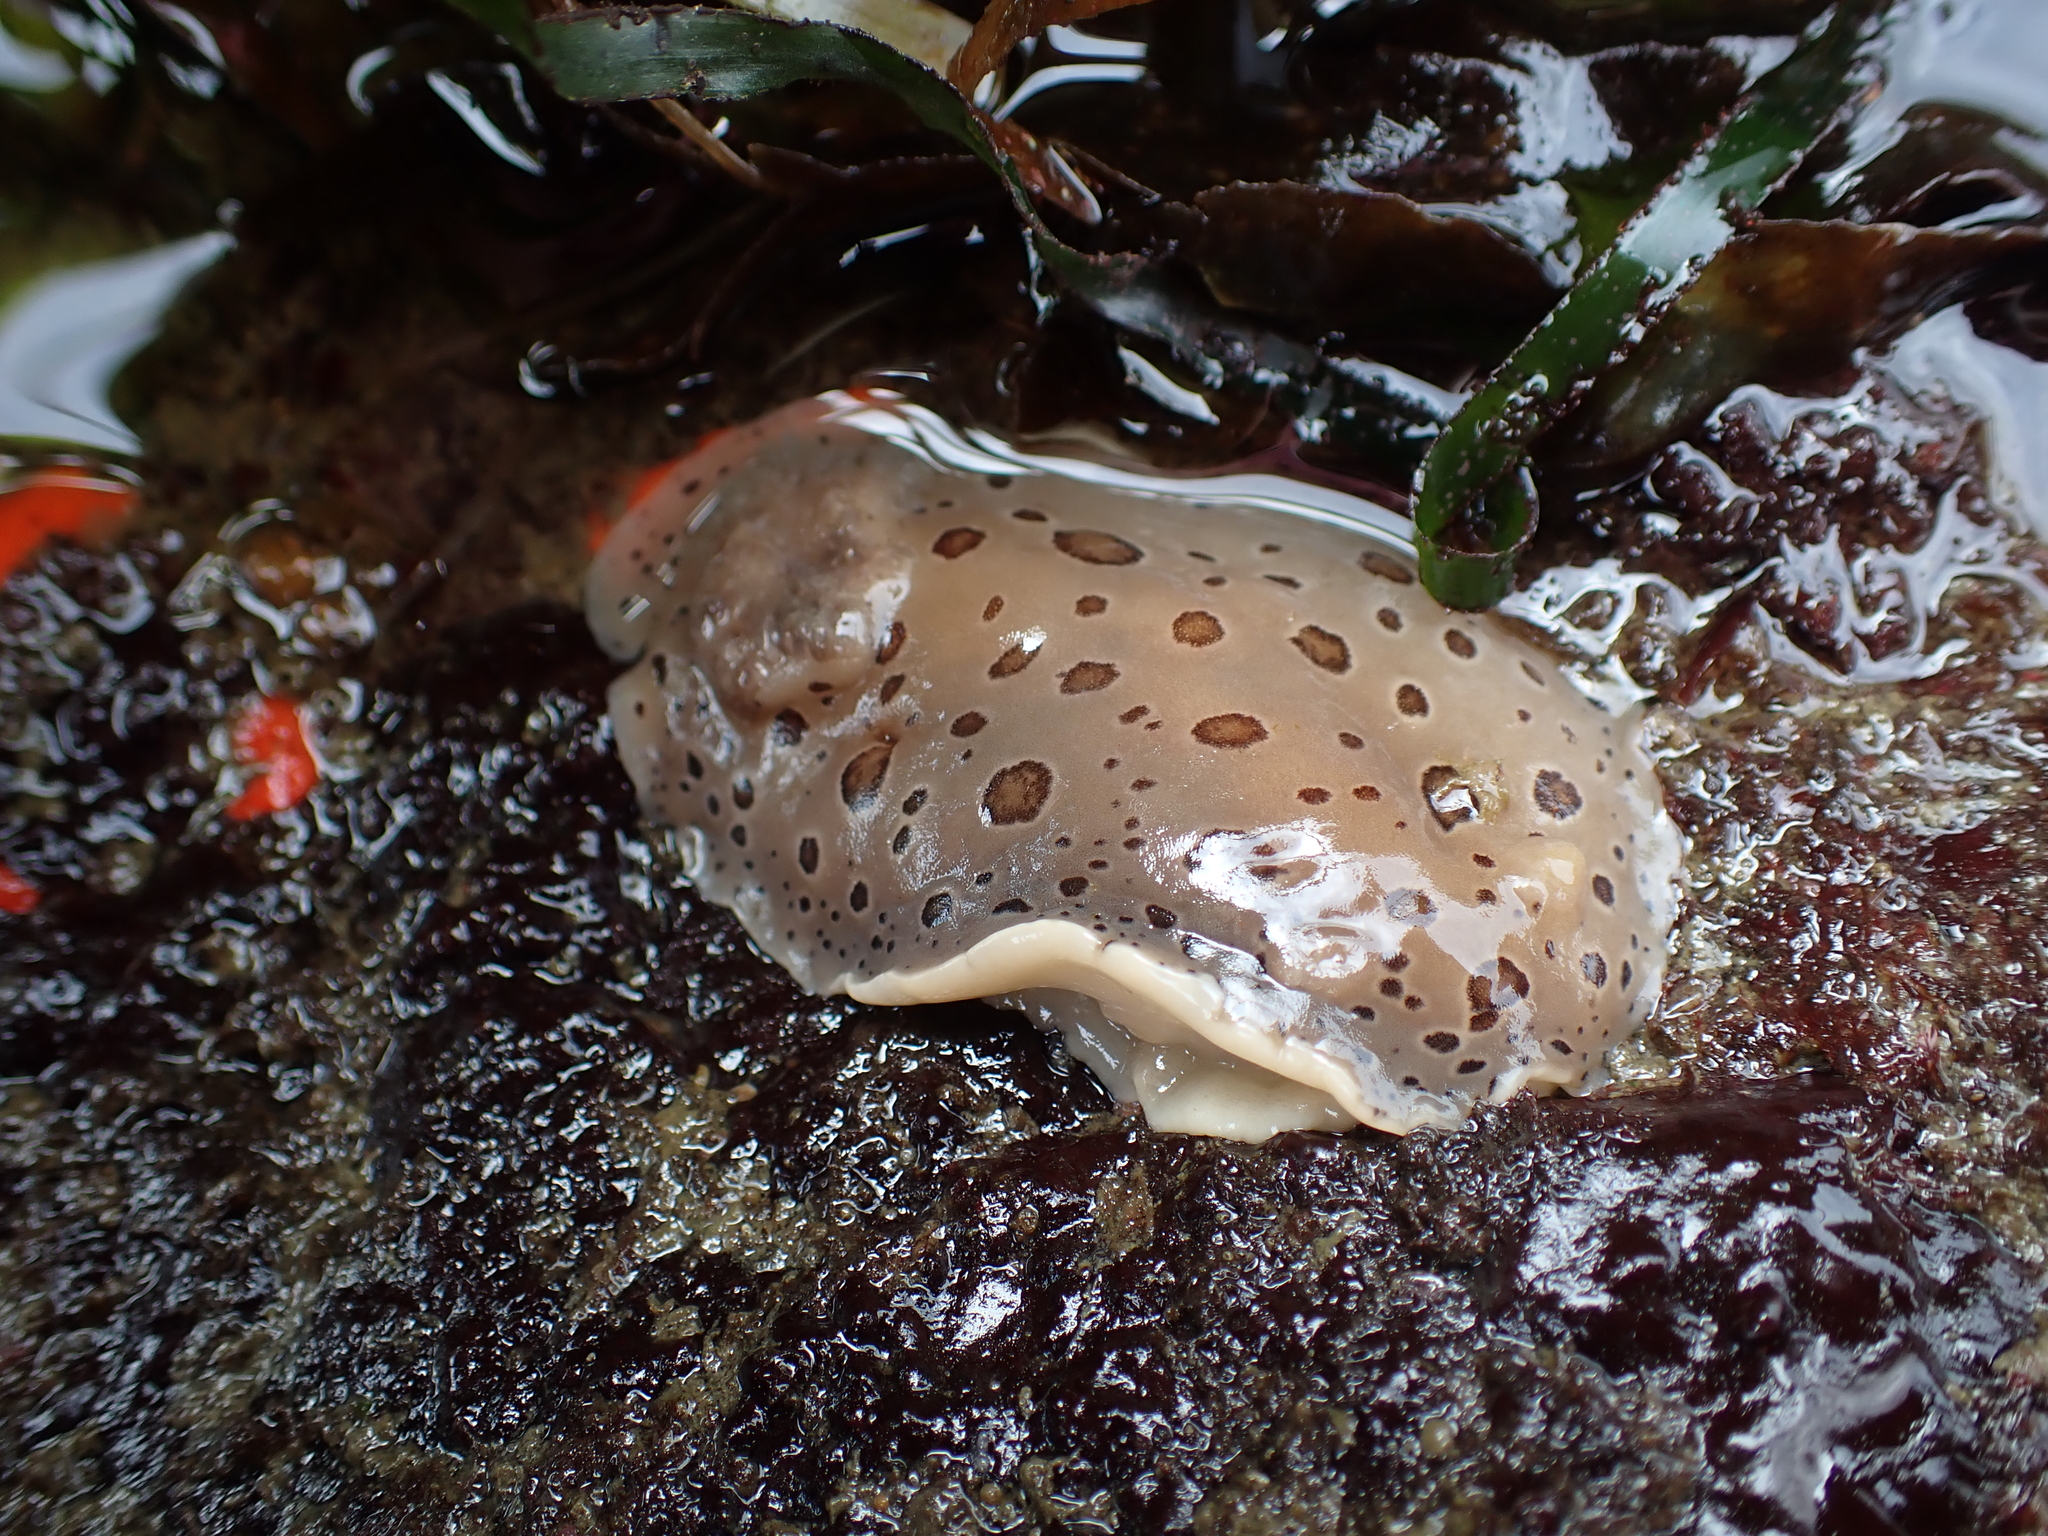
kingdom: Animalia
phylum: Mollusca
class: Gastropoda
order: Nudibranchia
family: Discodorididae
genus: Diaulula
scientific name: Diaulula odonoghuei
